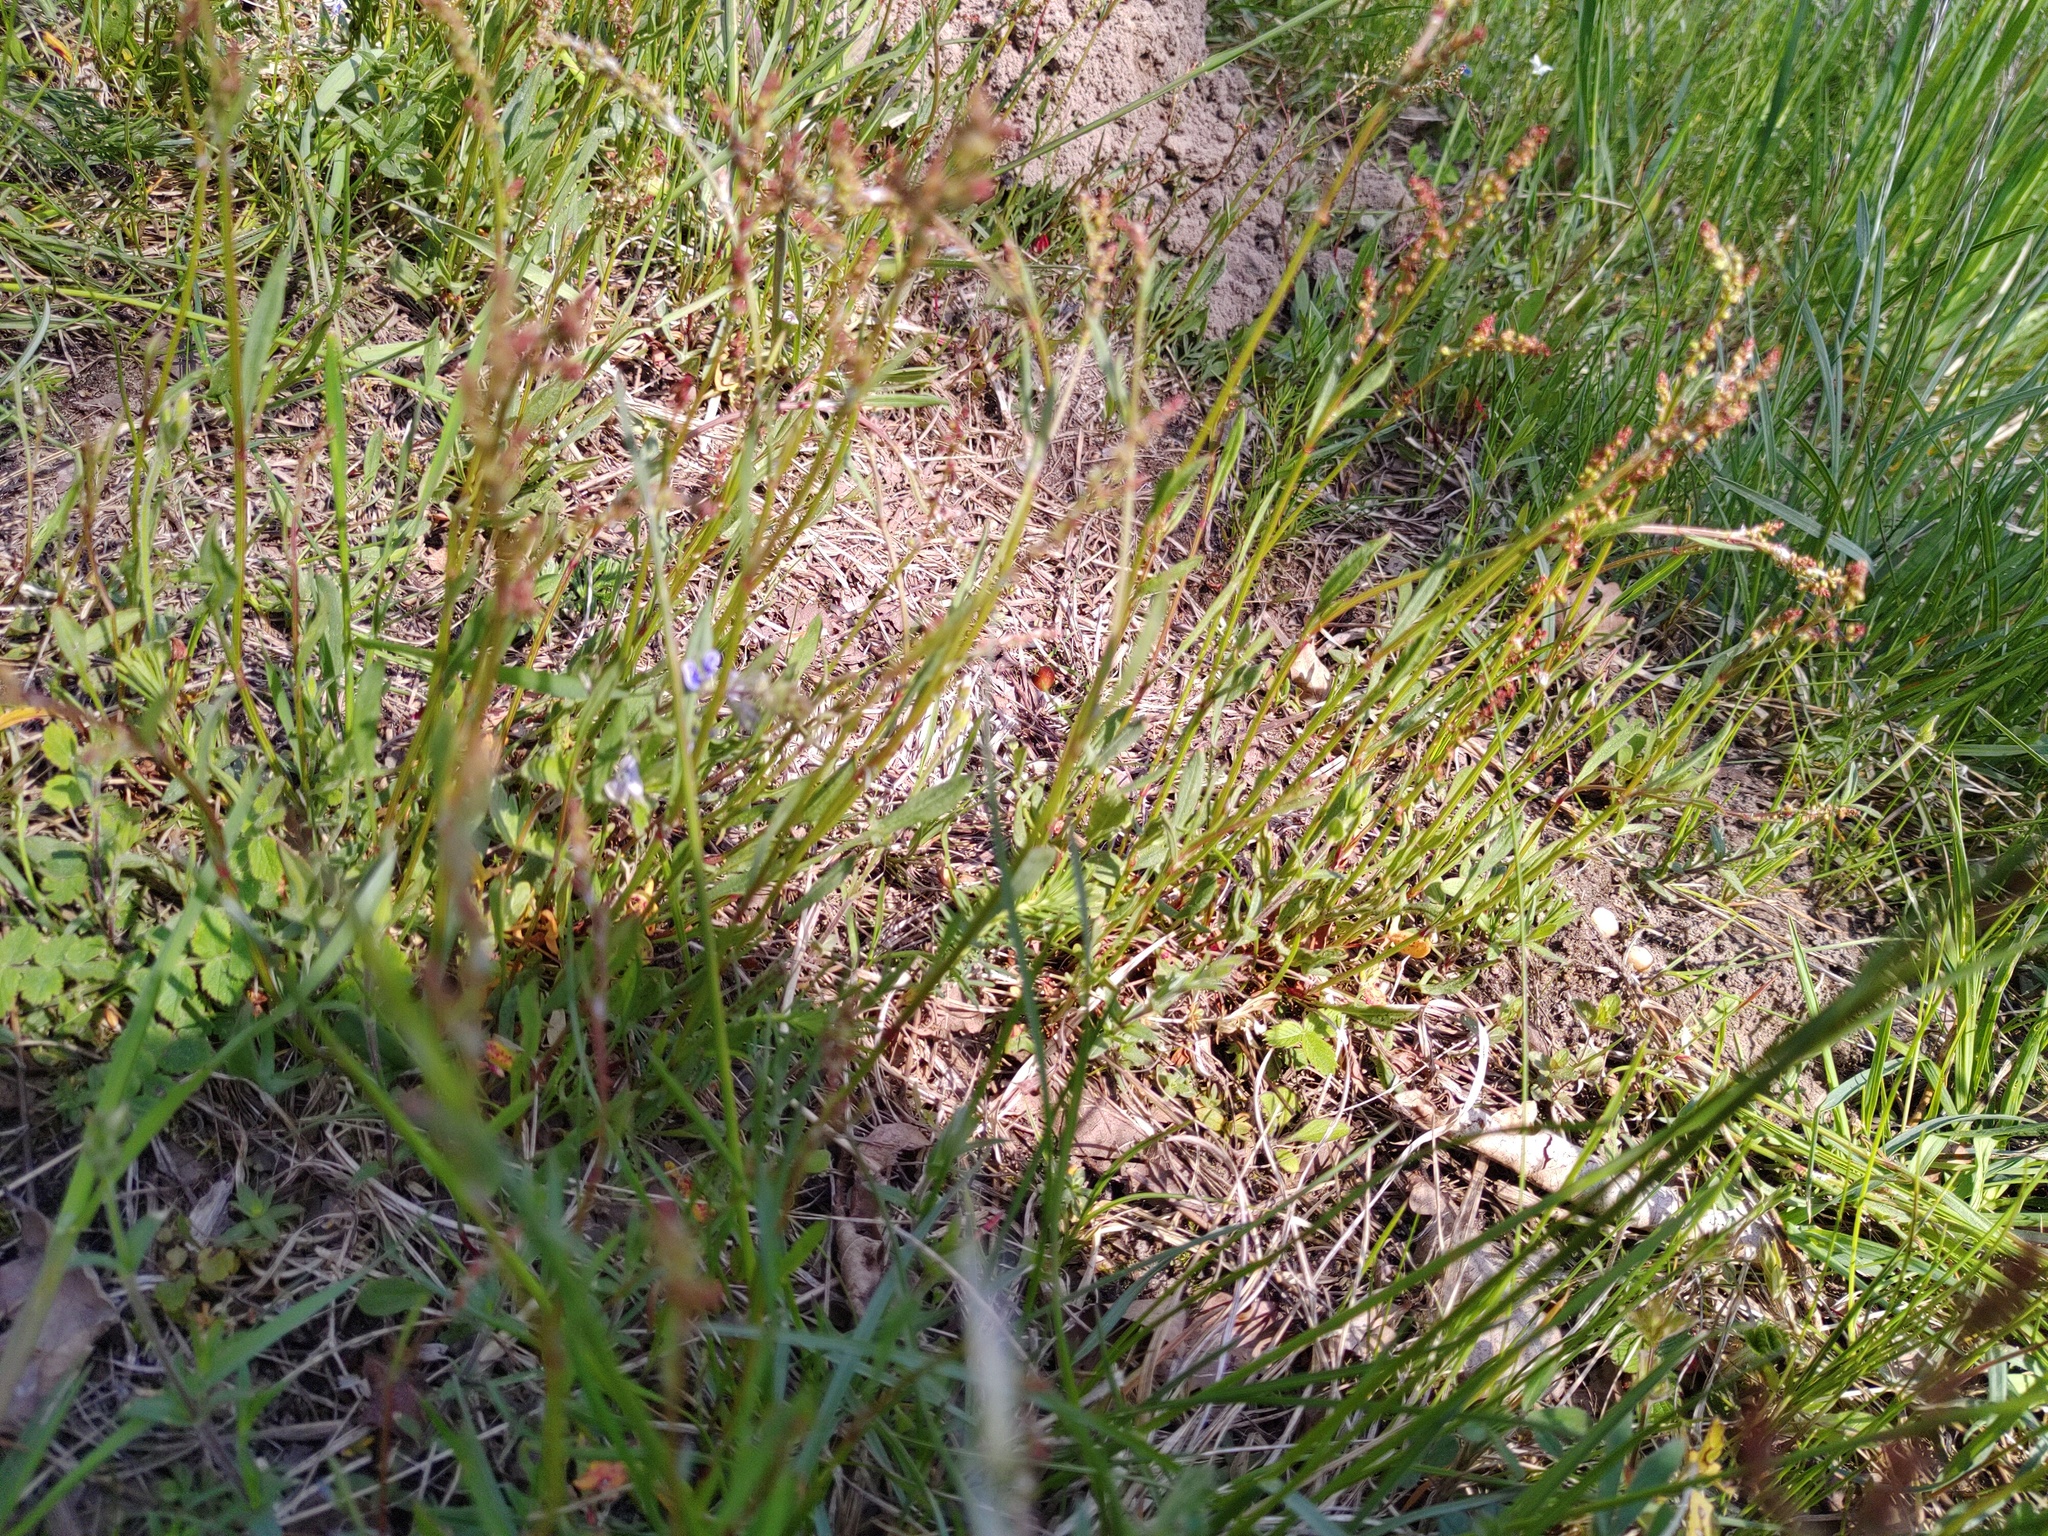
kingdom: Plantae
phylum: Tracheophyta
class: Magnoliopsida
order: Caryophyllales
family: Polygonaceae
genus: Rumex
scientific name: Rumex acetosella
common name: Common sheep sorrel
